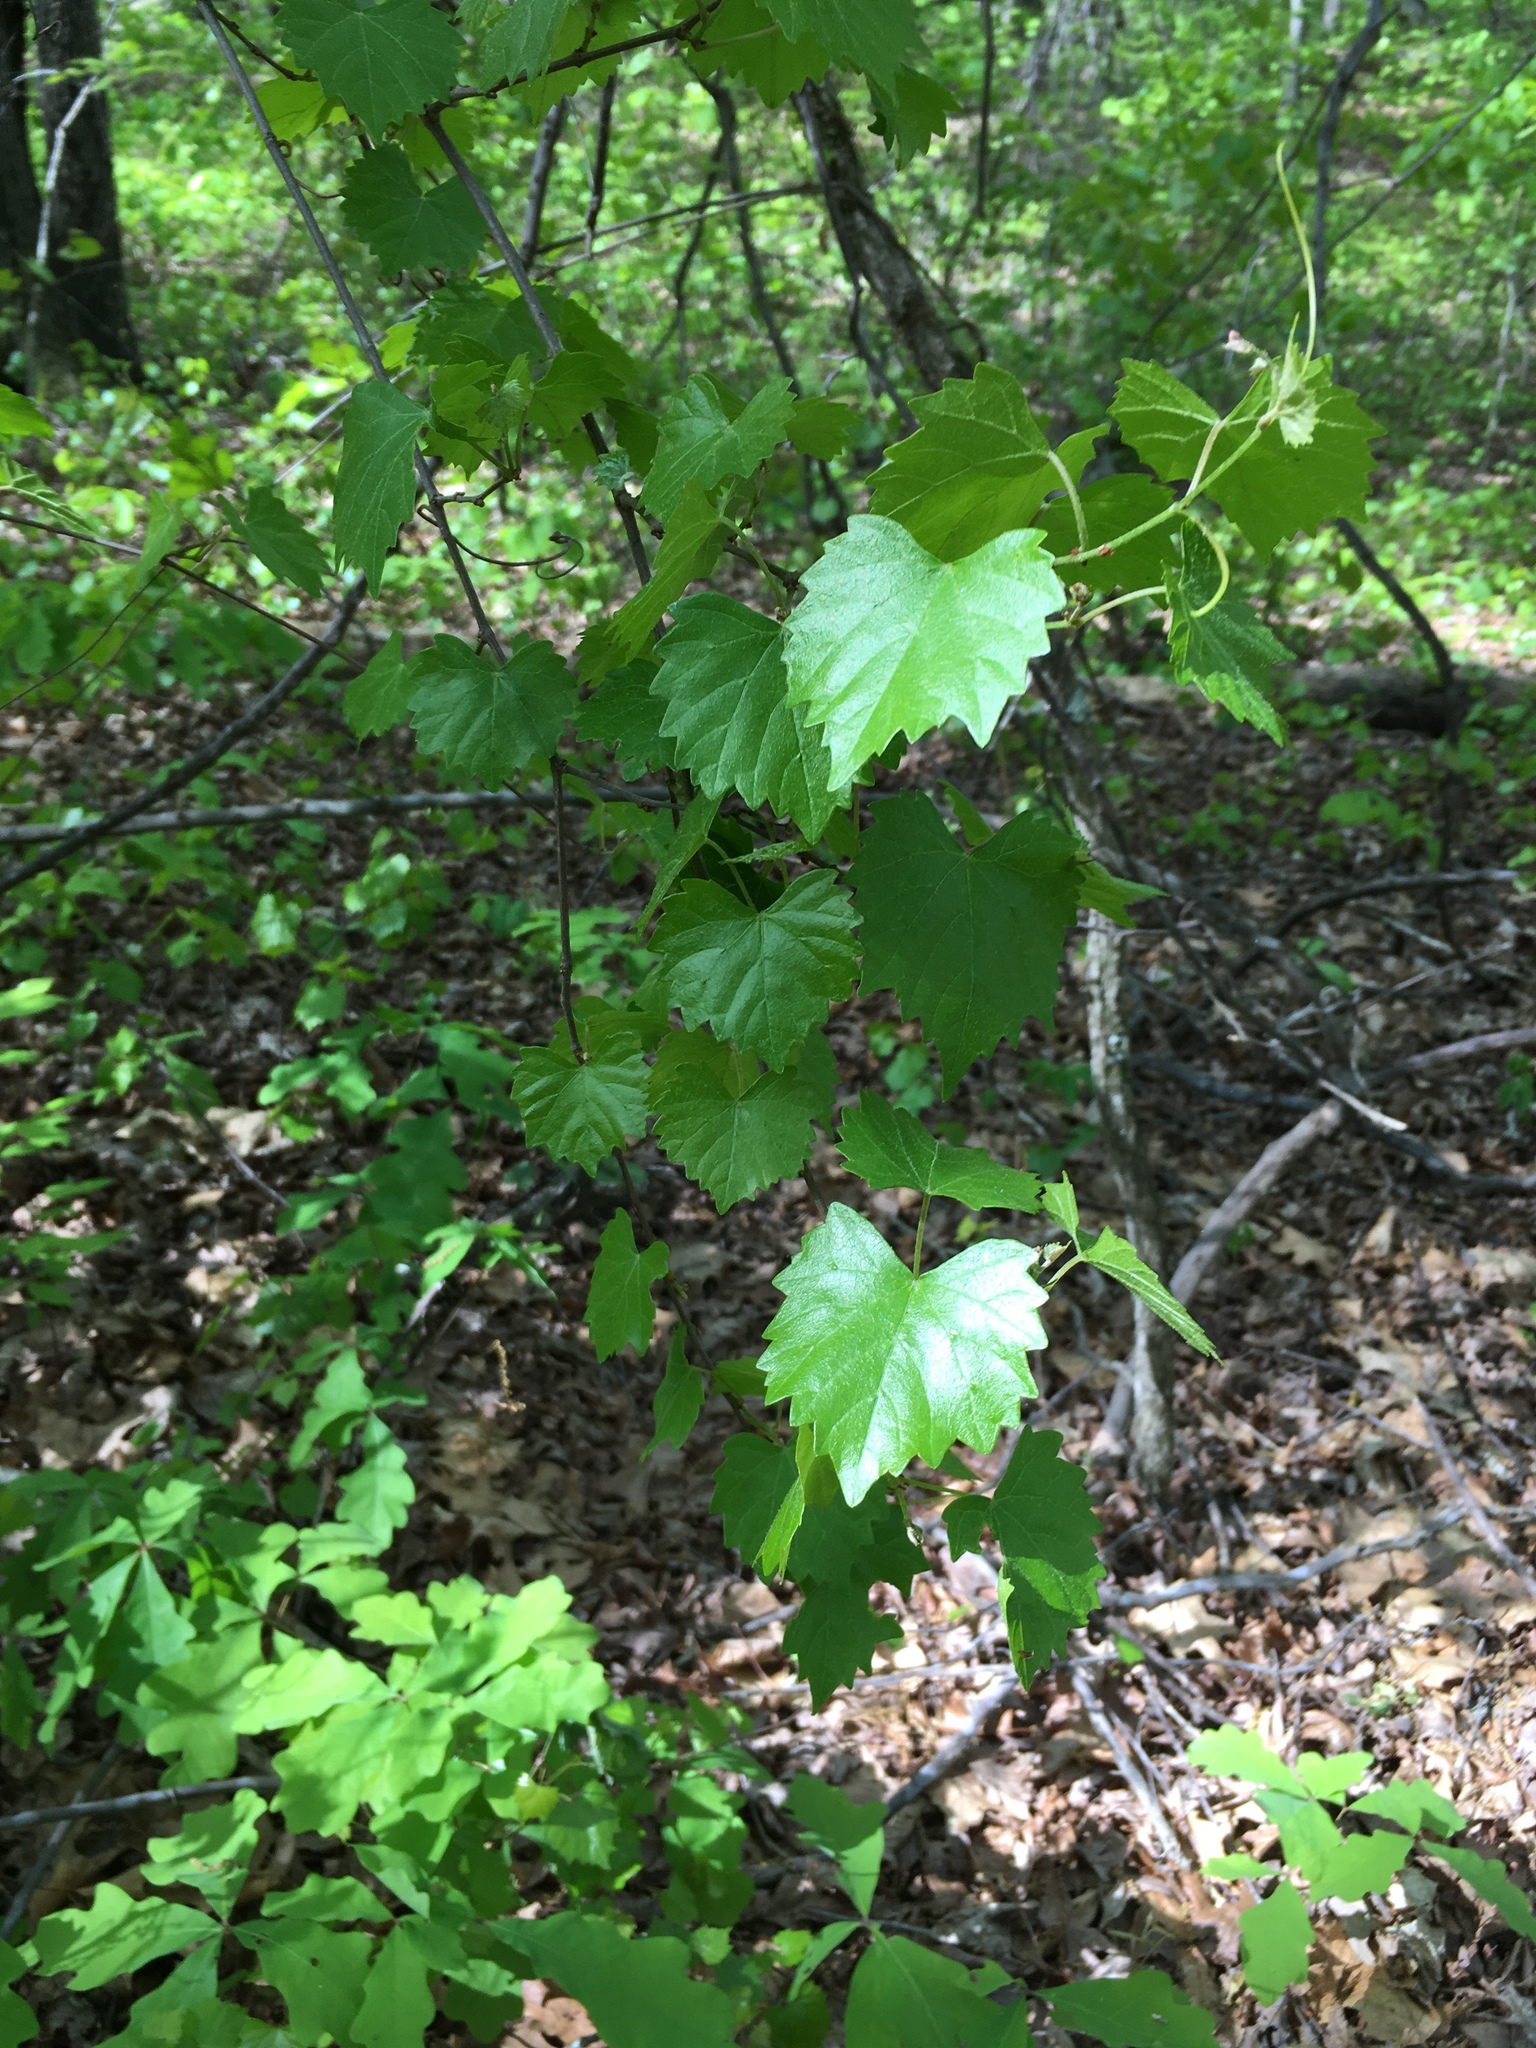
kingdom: Plantae
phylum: Tracheophyta
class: Magnoliopsida
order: Vitales
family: Vitaceae
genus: Vitis
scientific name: Vitis rotundifolia
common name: Muscadine grape
